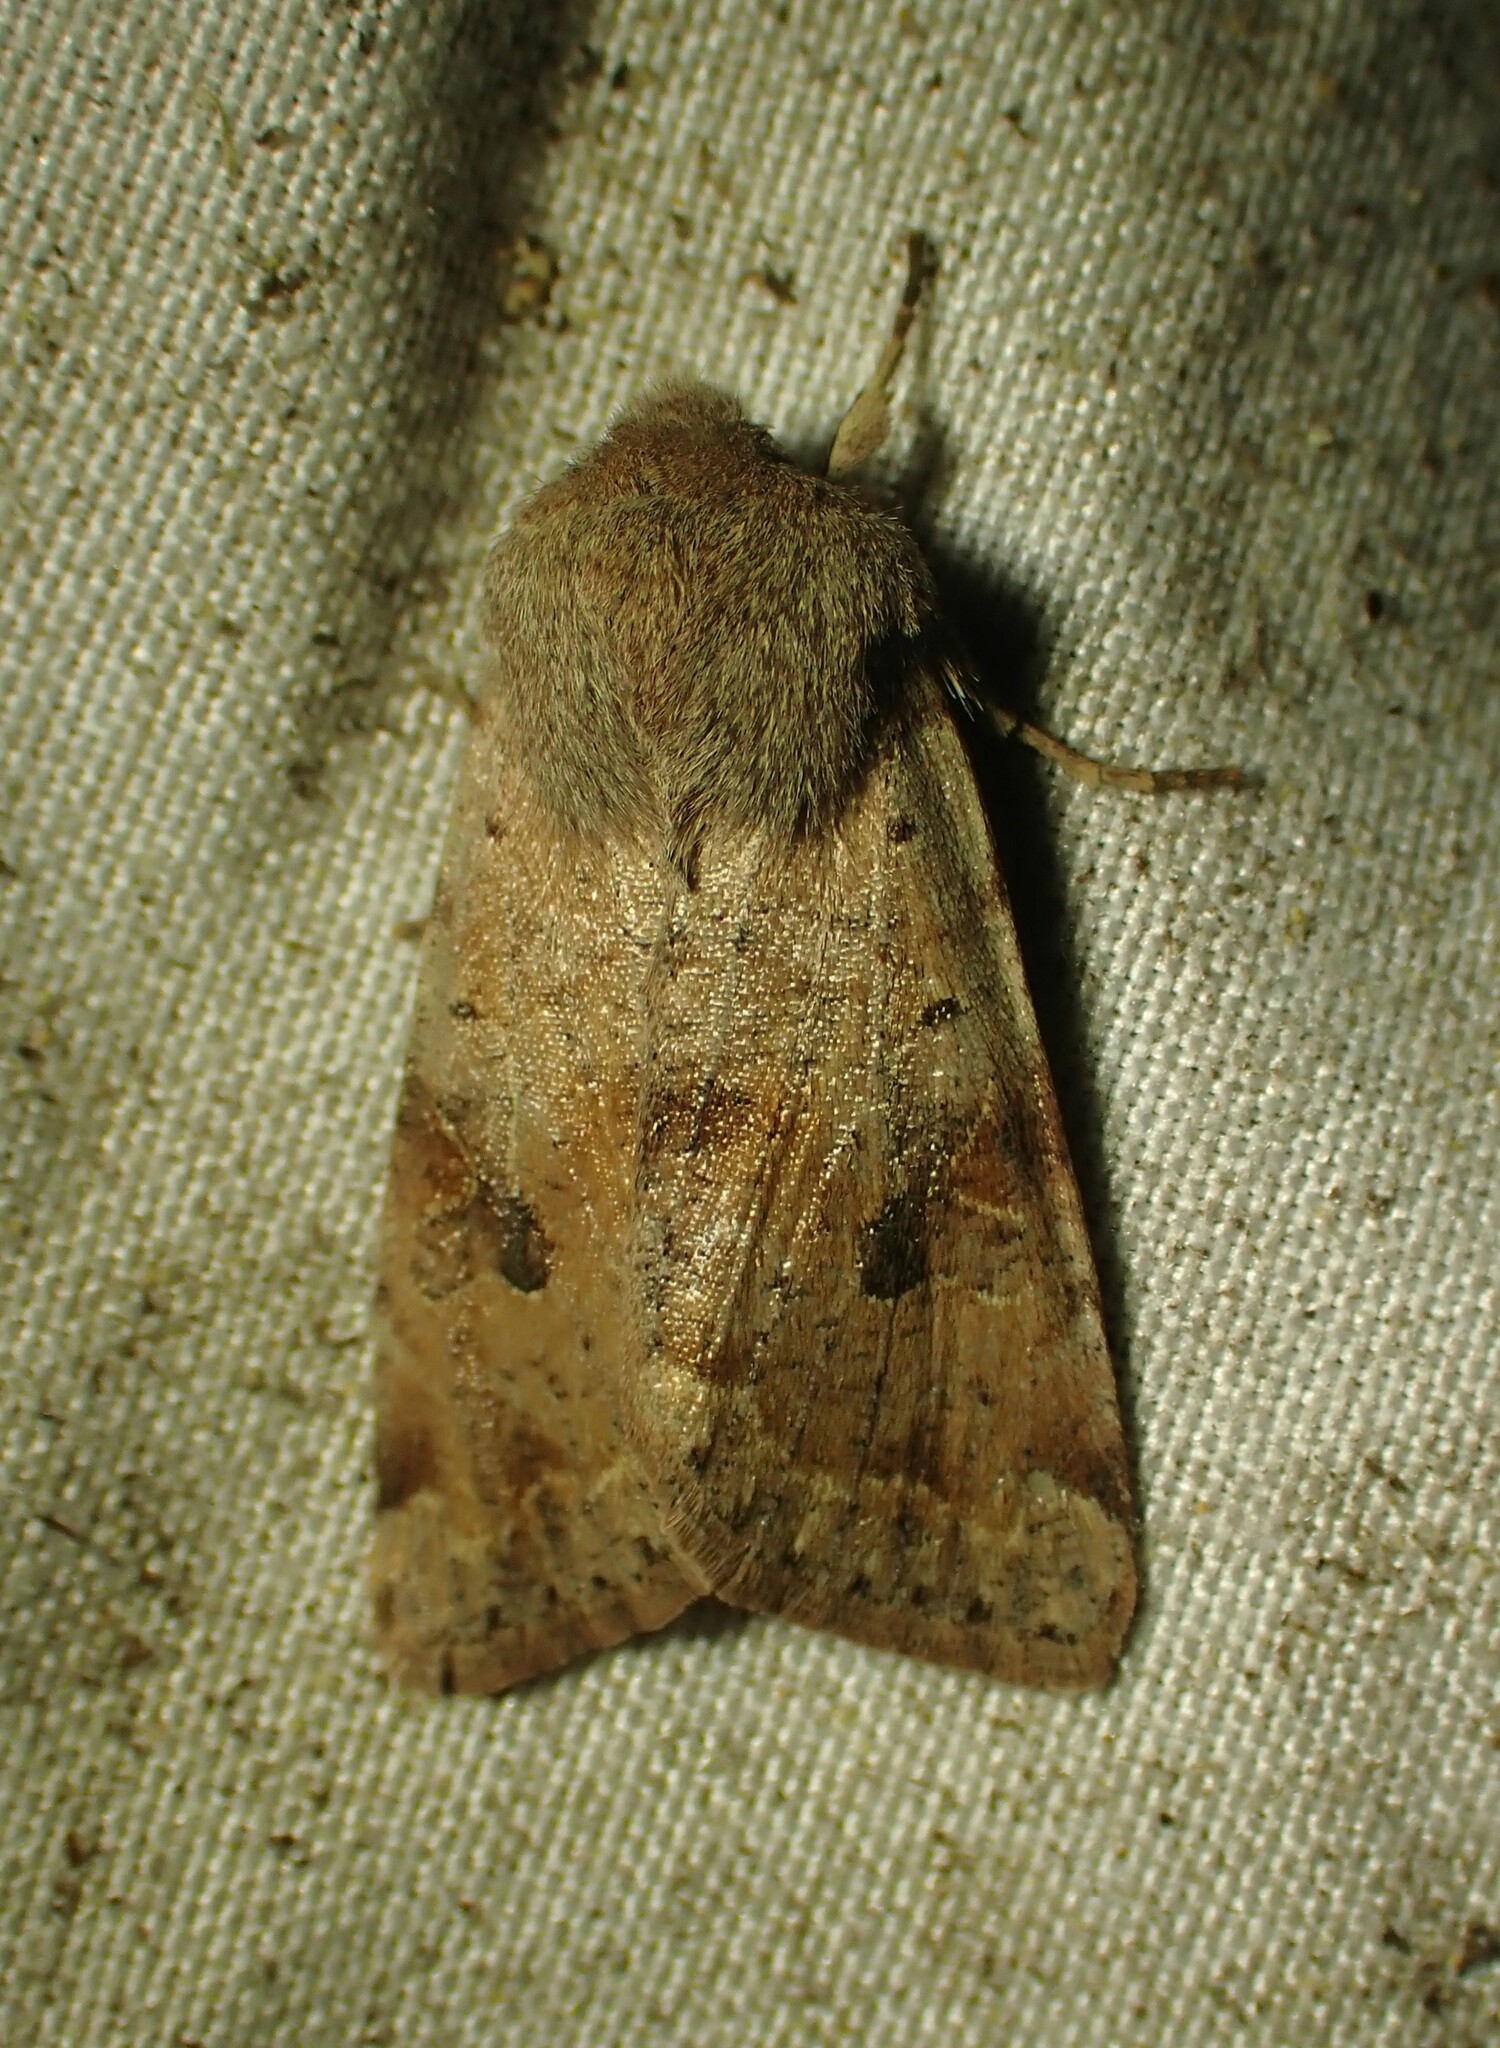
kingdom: Animalia
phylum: Arthropoda
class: Insecta
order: Lepidoptera
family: Noctuidae
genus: Orthosia
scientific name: Orthosia hibisci
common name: Green fruitworm
